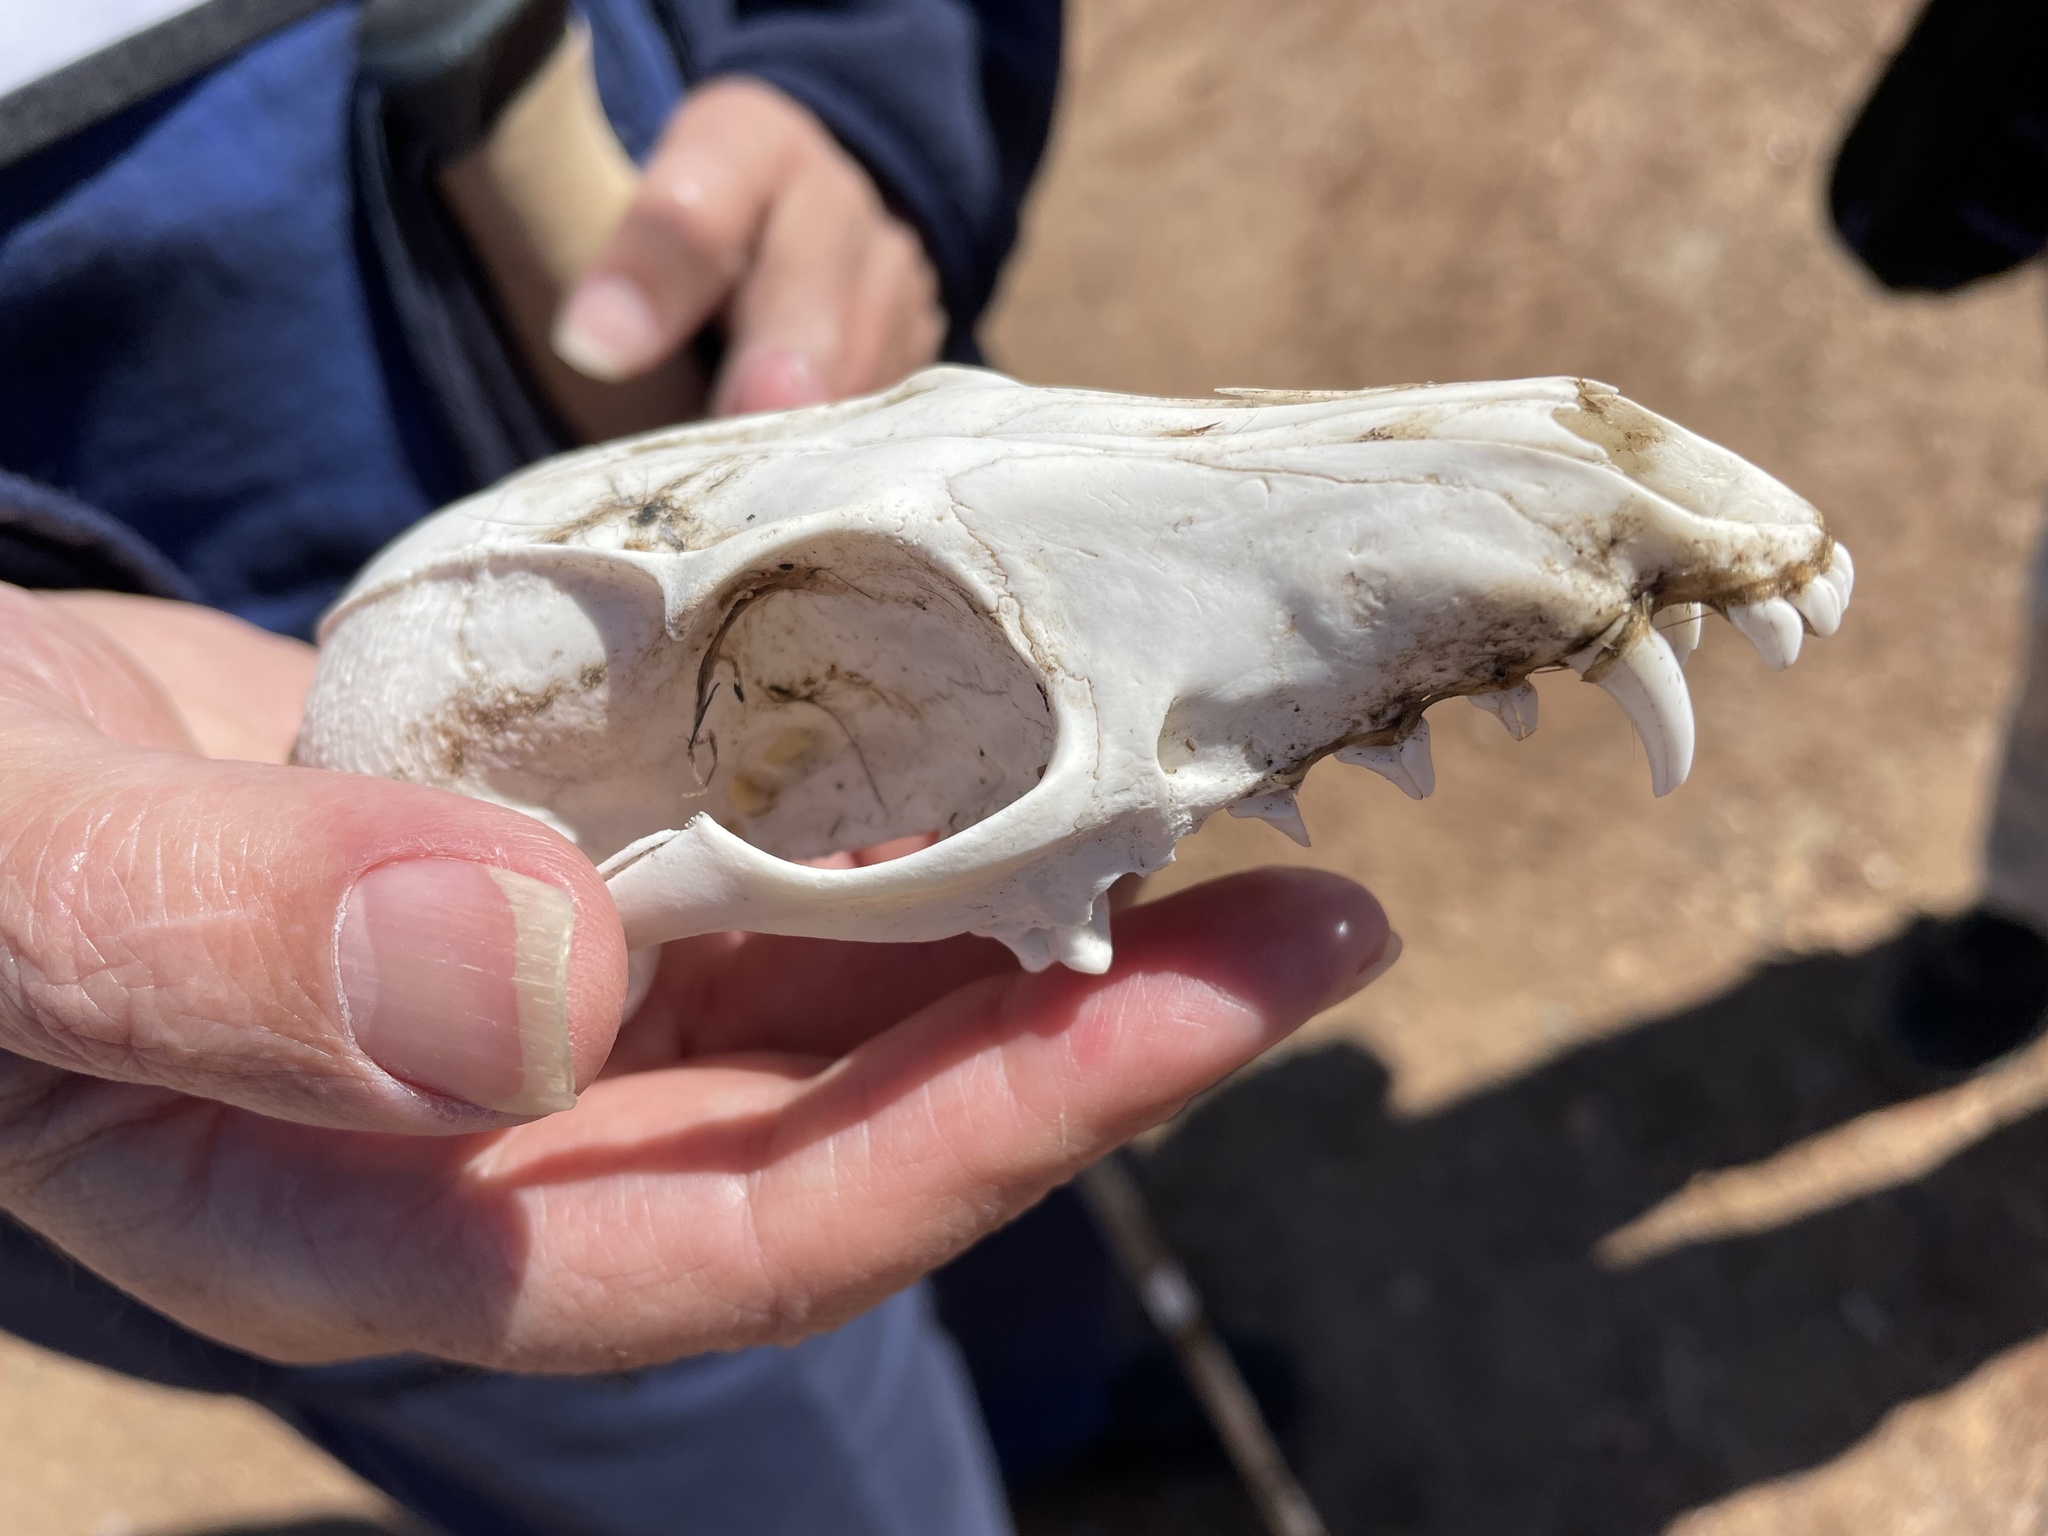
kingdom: Animalia
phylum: Chordata
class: Mammalia
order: Carnivora
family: Canidae
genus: Urocyon
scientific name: Urocyon cinereoargenteus
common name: Gray fox
